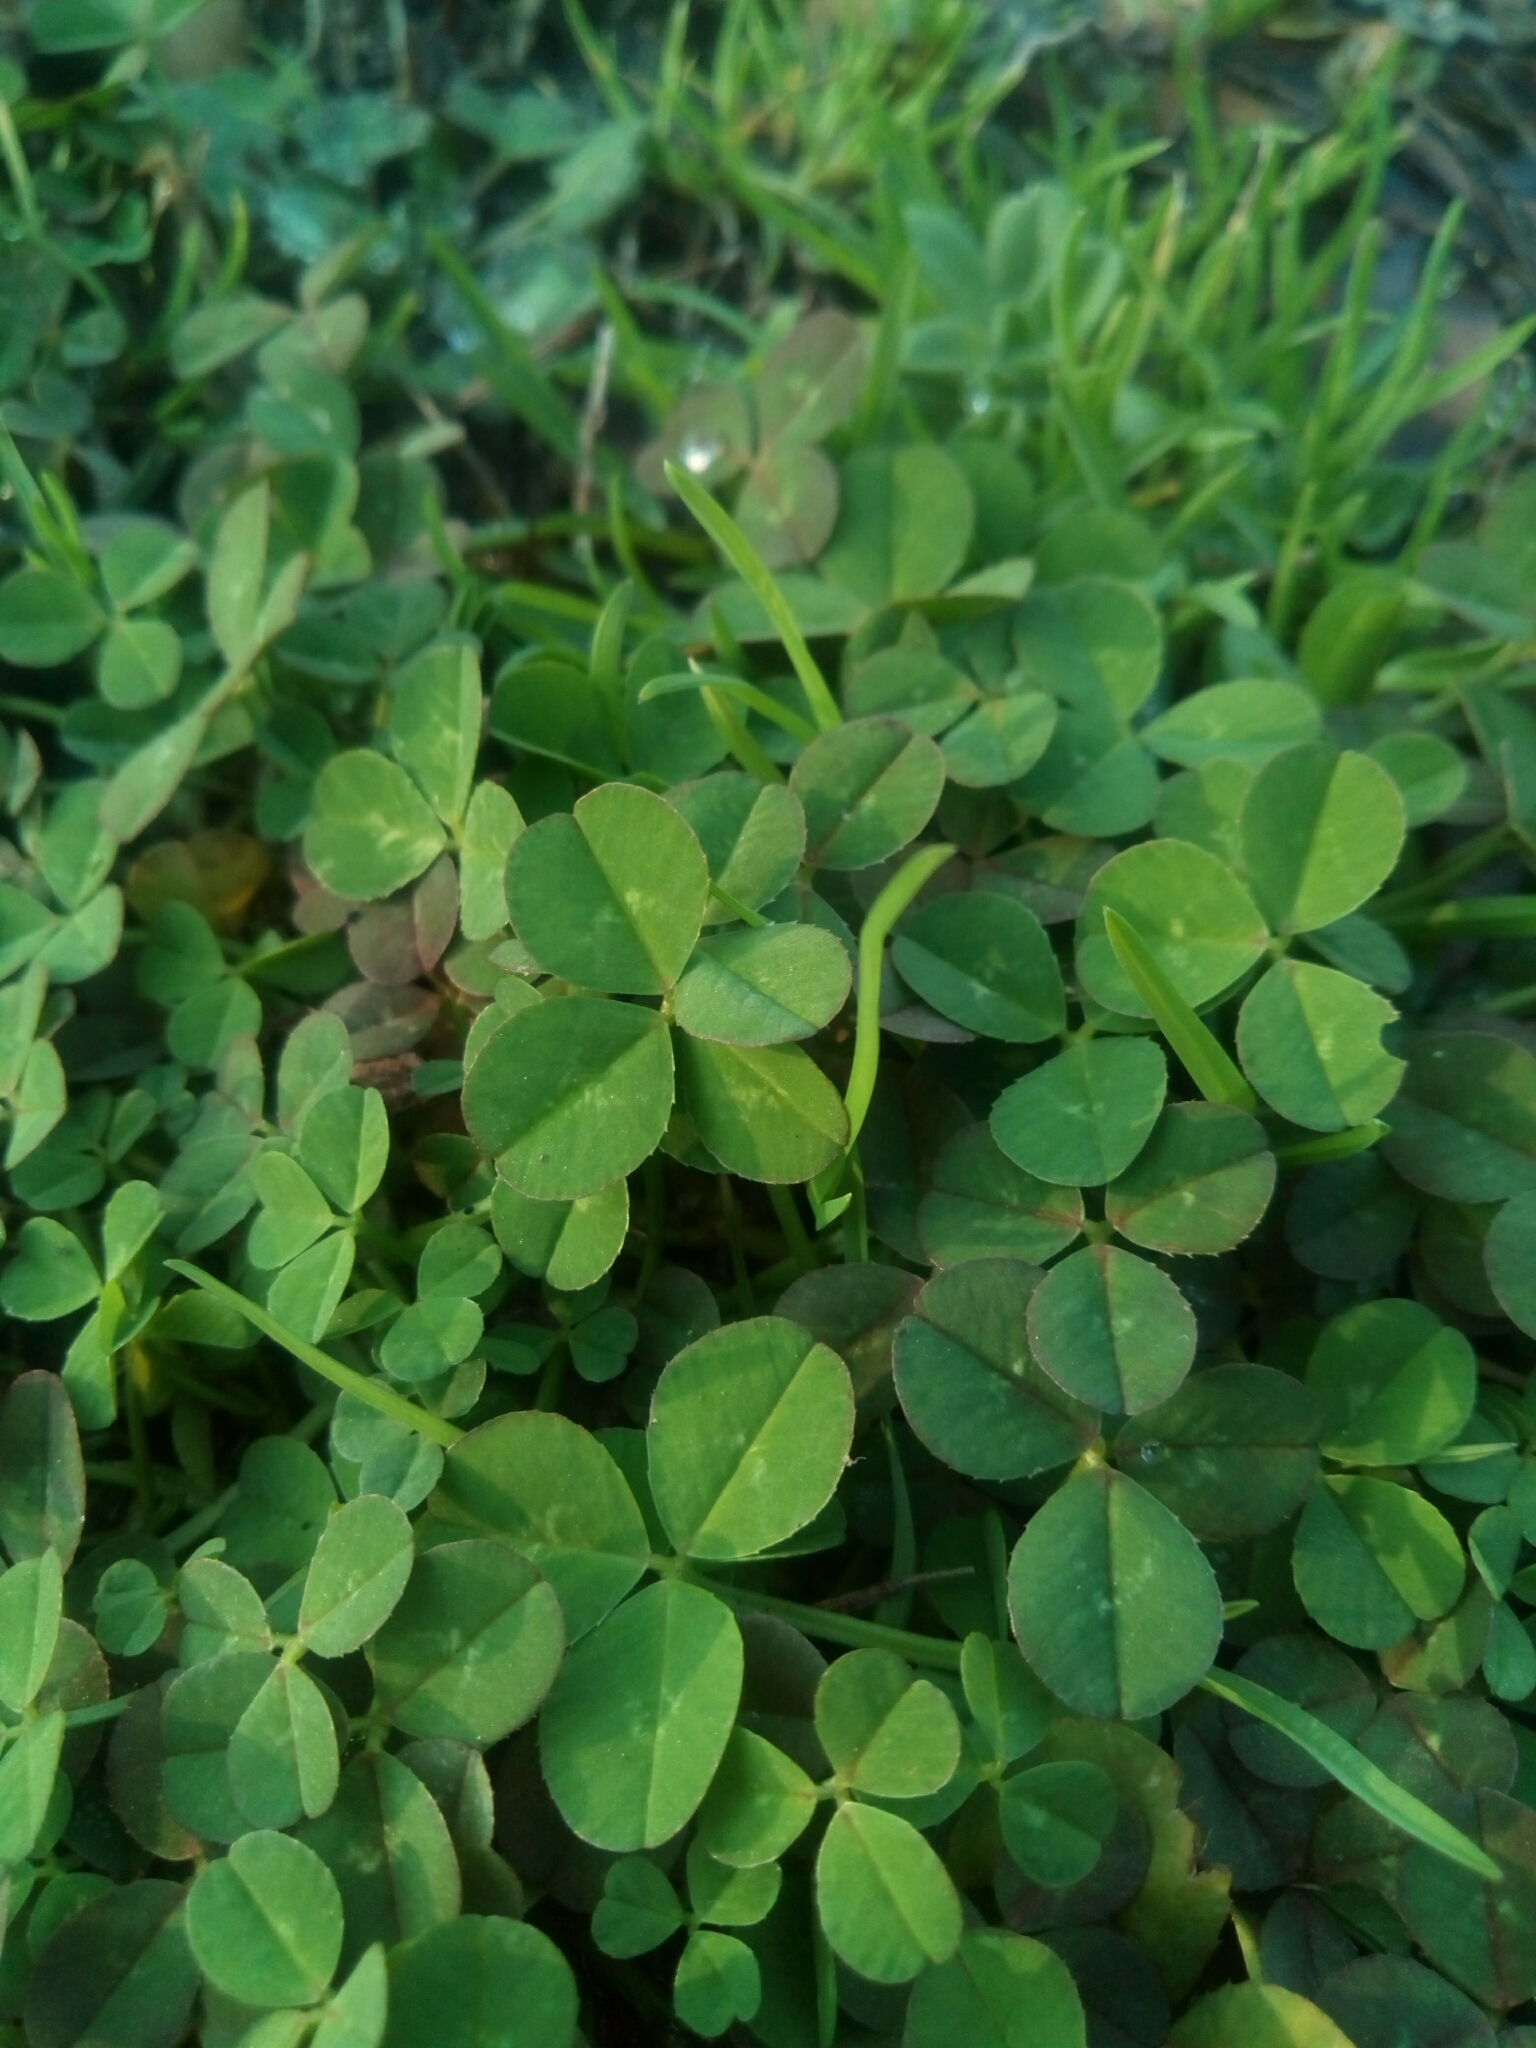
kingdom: Plantae
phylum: Tracheophyta
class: Magnoliopsida
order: Fabales
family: Fabaceae
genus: Trifolium
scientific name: Trifolium repens
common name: White clover
